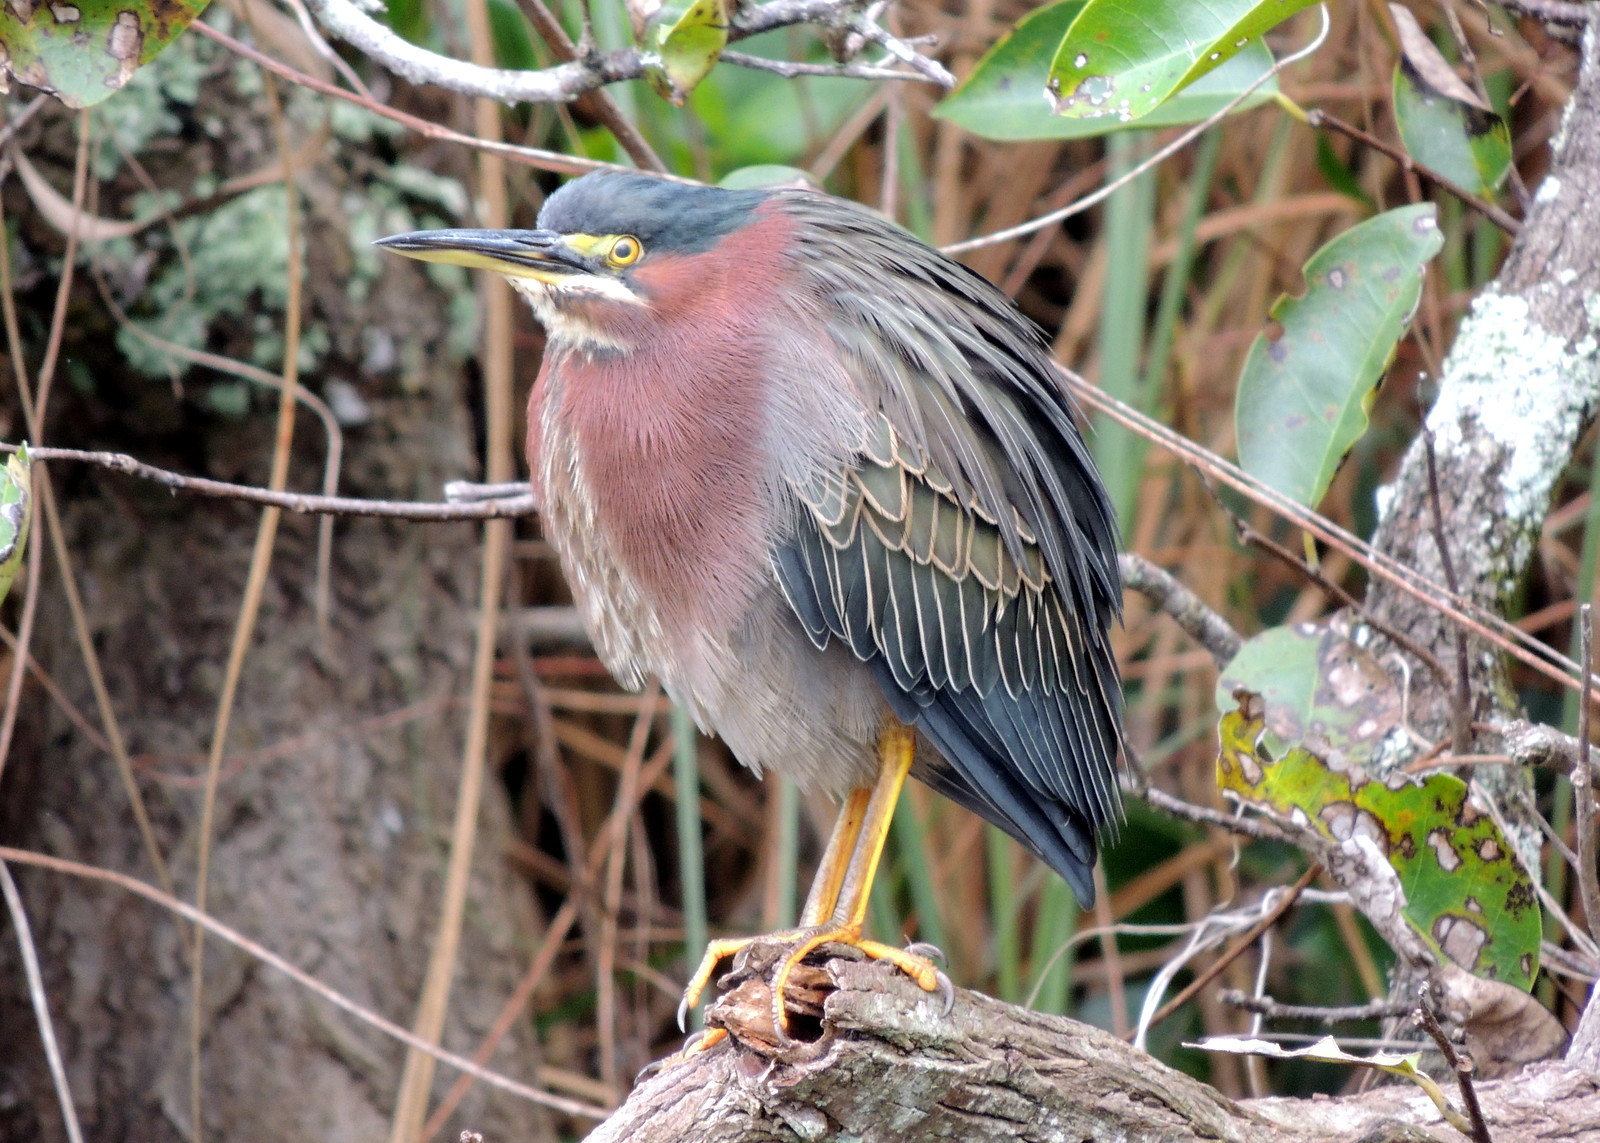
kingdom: Animalia
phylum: Chordata
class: Aves
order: Pelecaniformes
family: Ardeidae
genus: Butorides
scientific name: Butorides virescens
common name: Green heron
